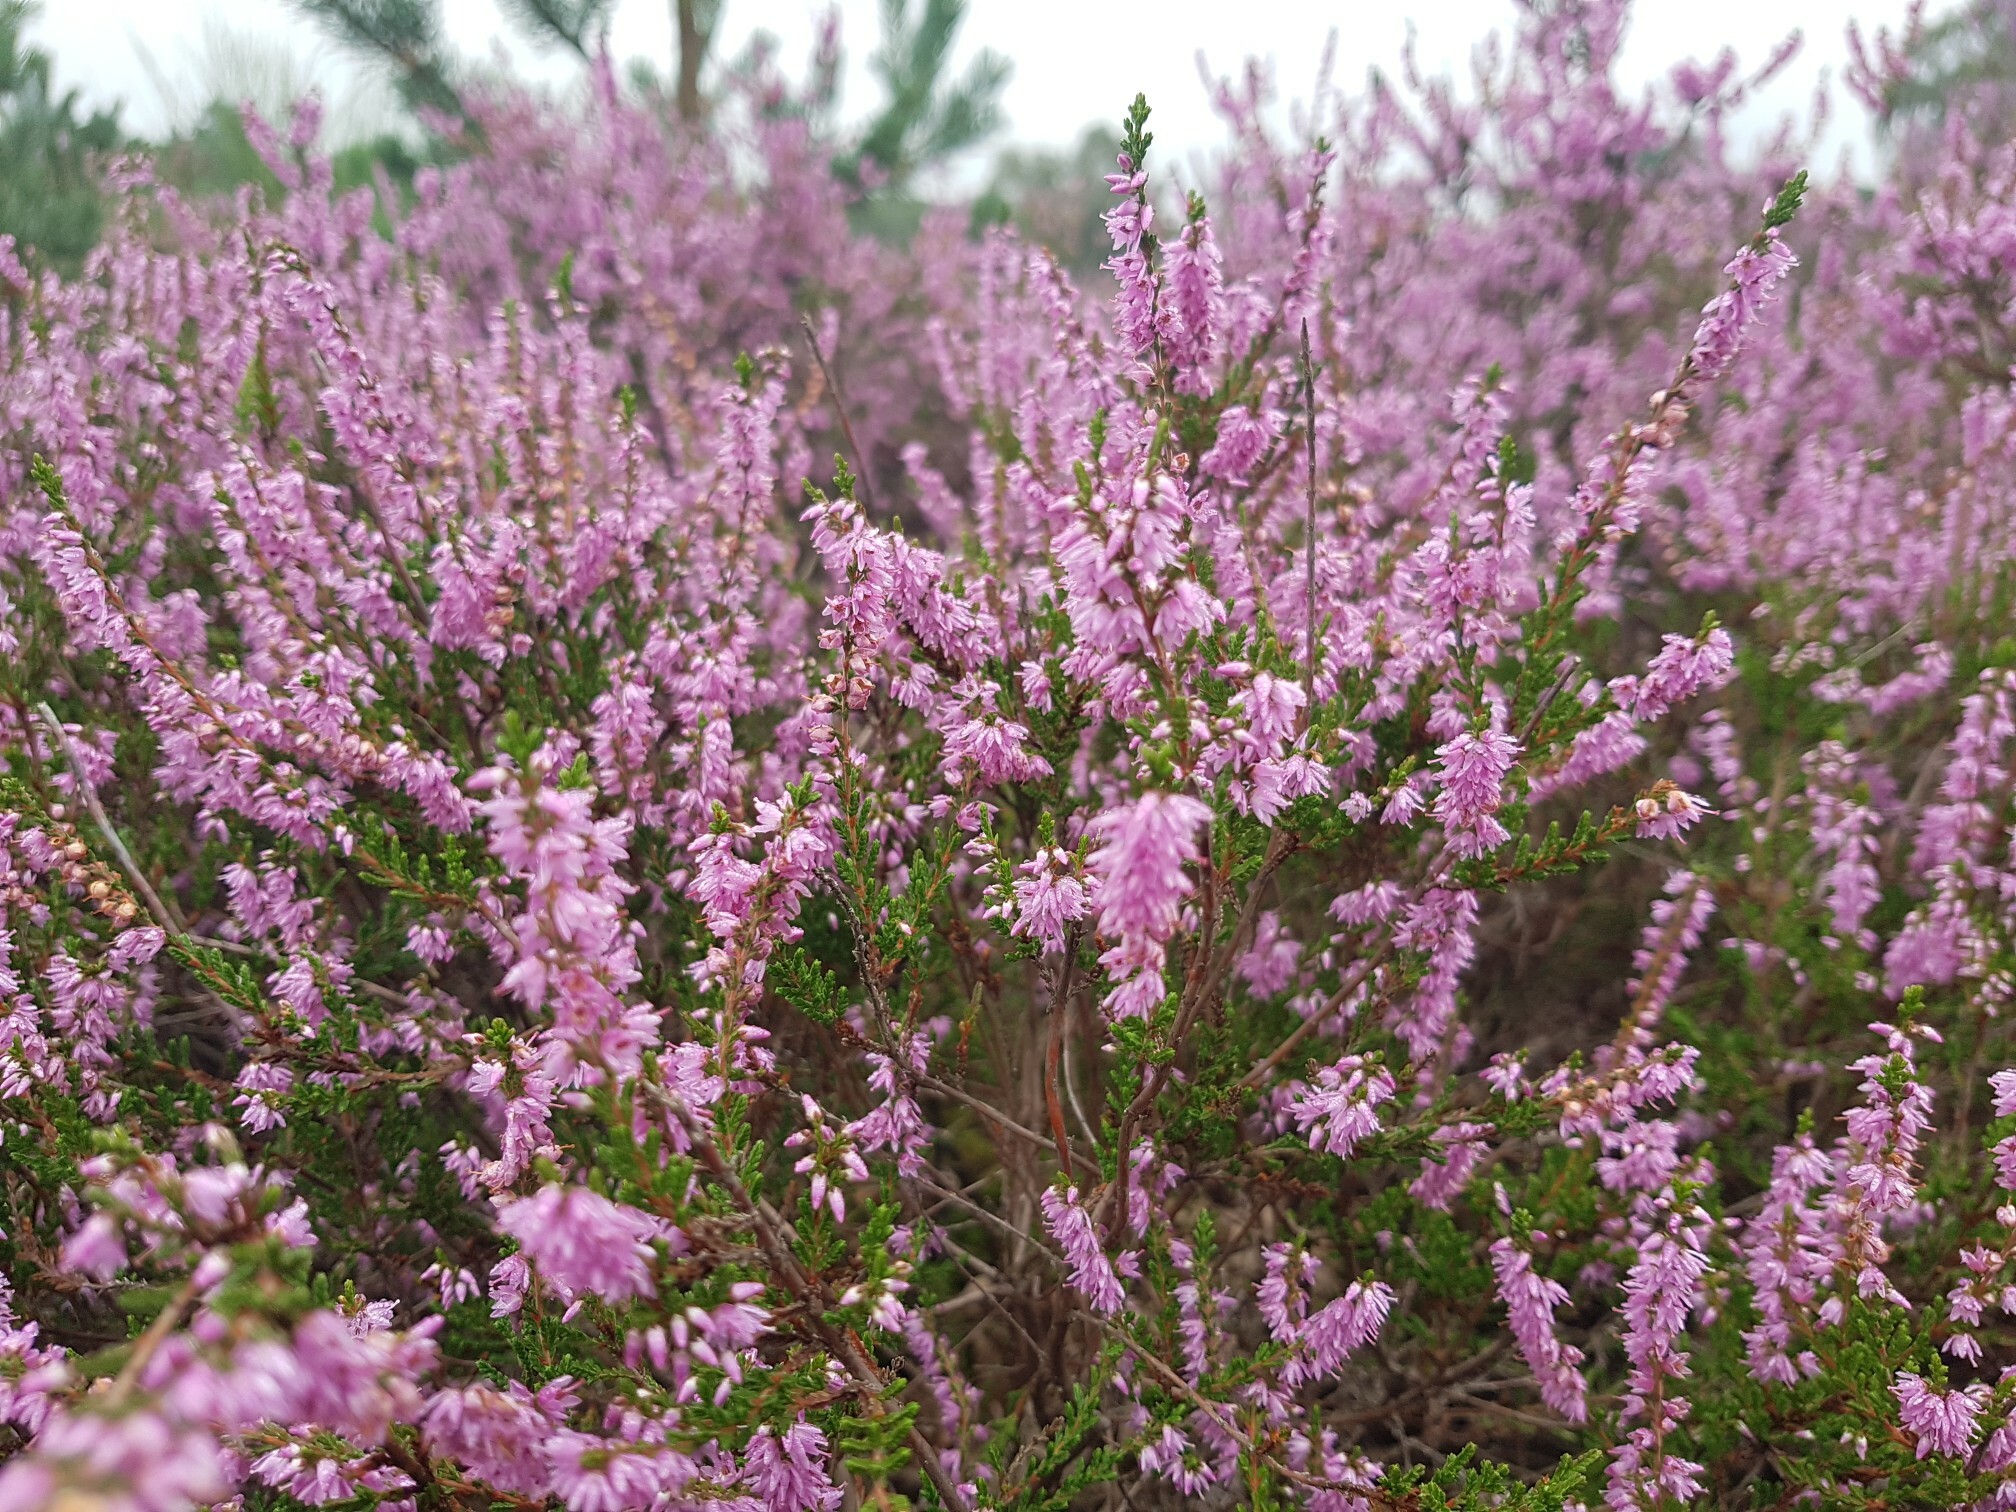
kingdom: Plantae
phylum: Tracheophyta
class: Magnoliopsida
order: Ericales
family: Ericaceae
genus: Calluna
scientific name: Calluna vulgaris
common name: Heather
